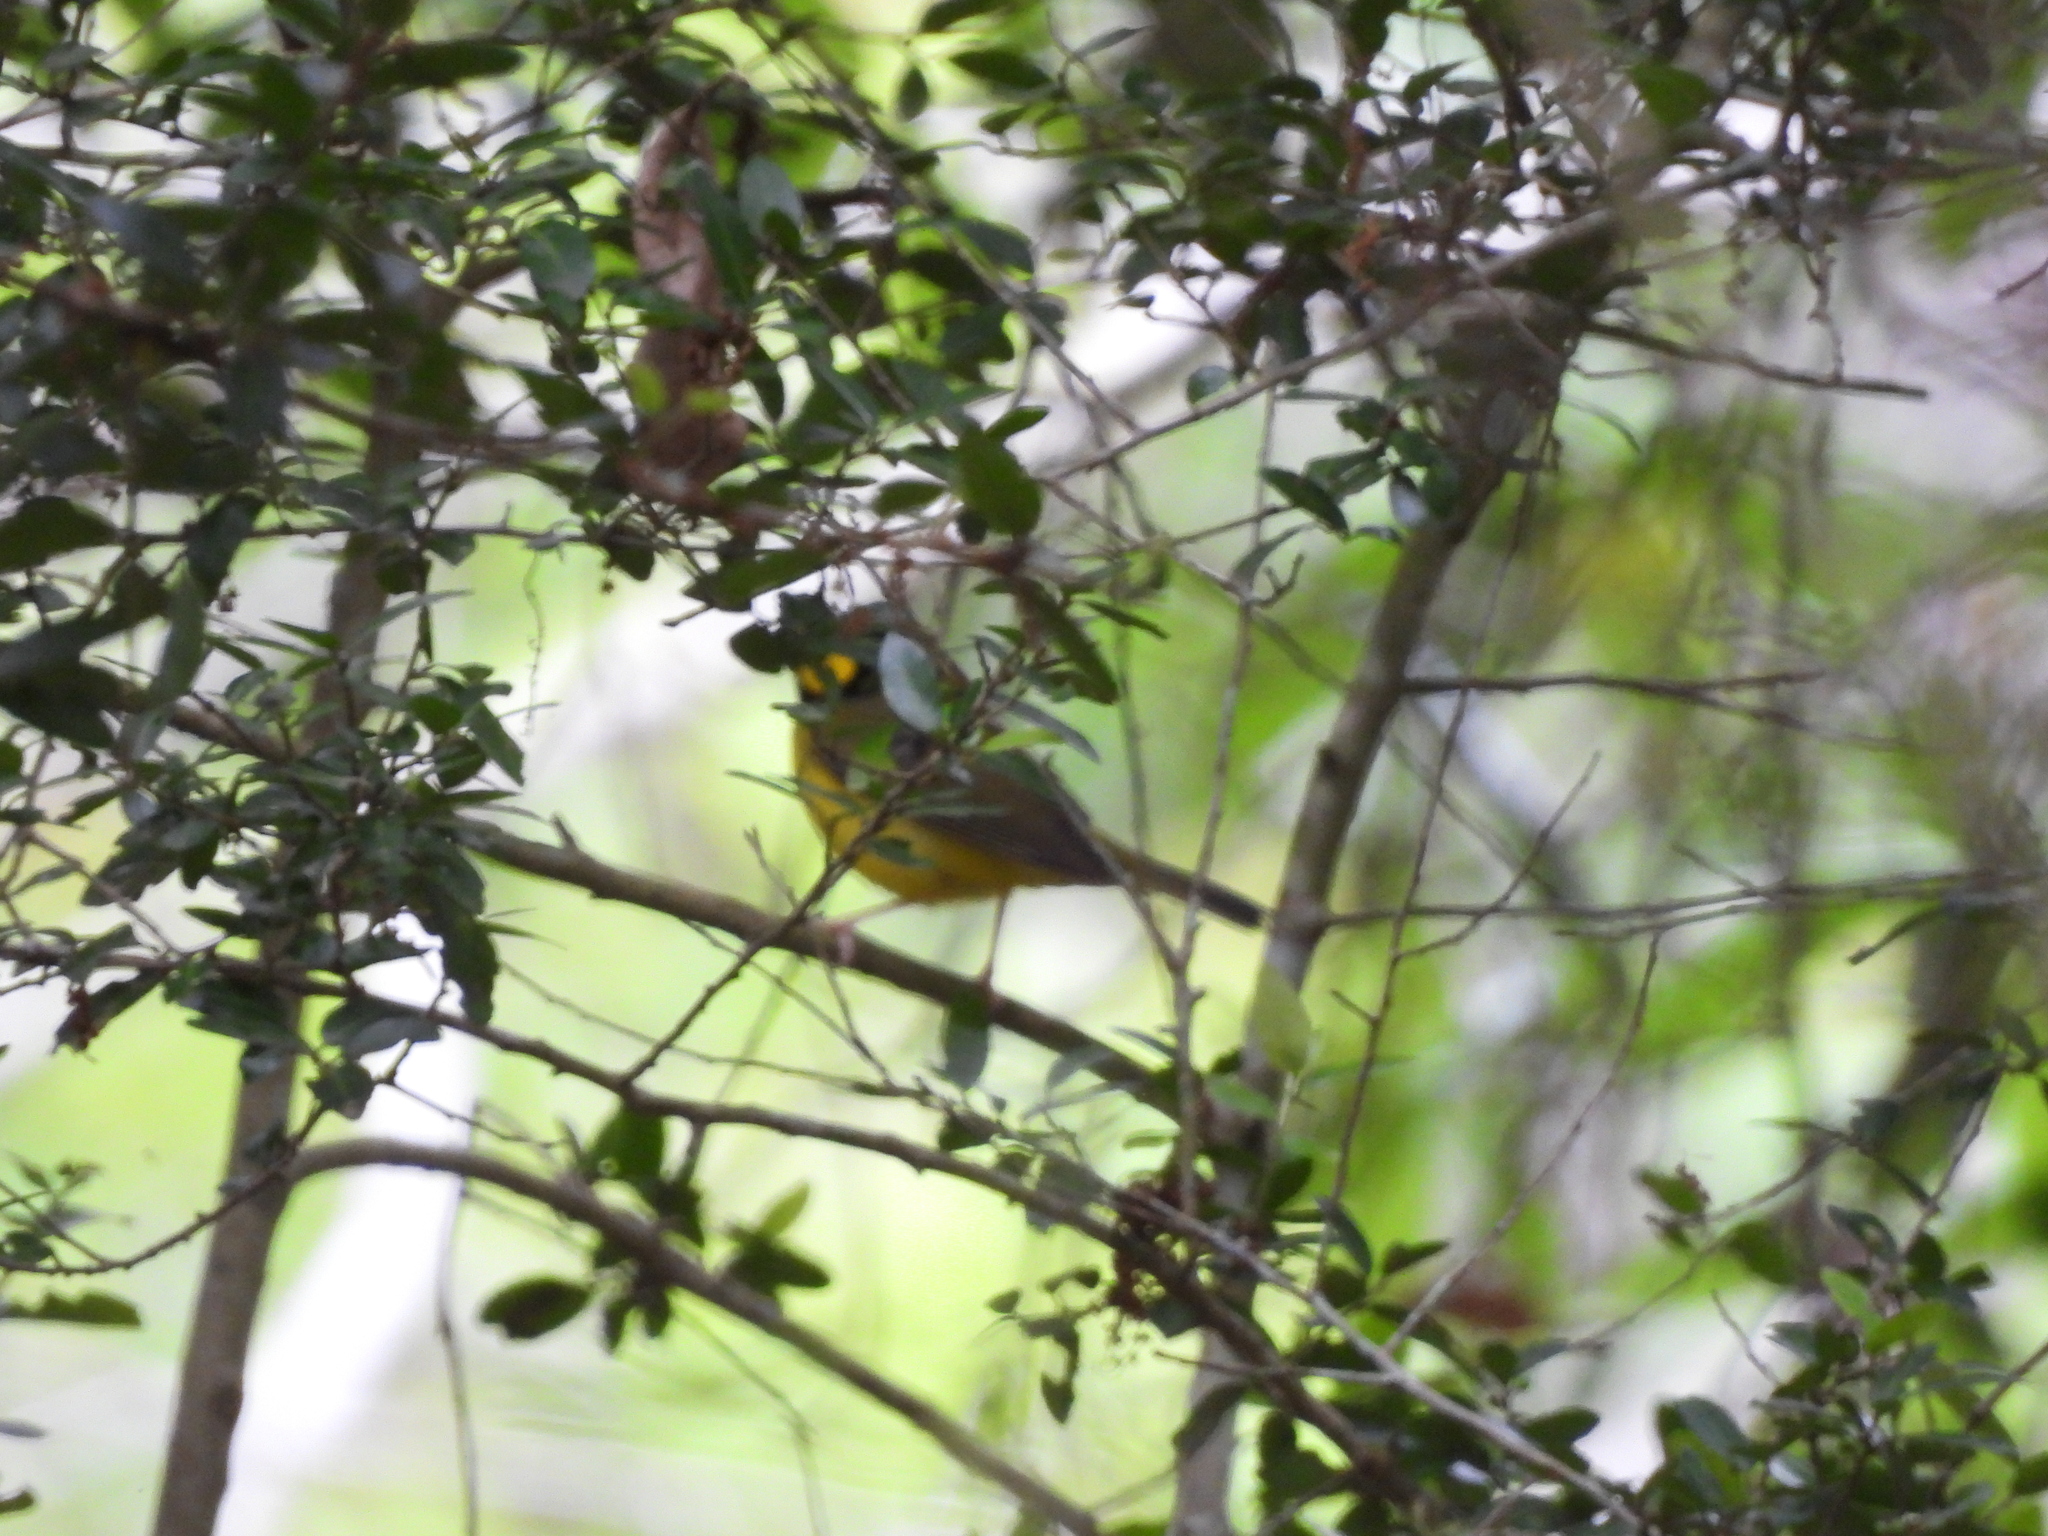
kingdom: Animalia
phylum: Chordata
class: Aves
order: Passeriformes
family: Parulidae
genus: Setophaga
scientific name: Setophaga citrina
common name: Hooded warbler
